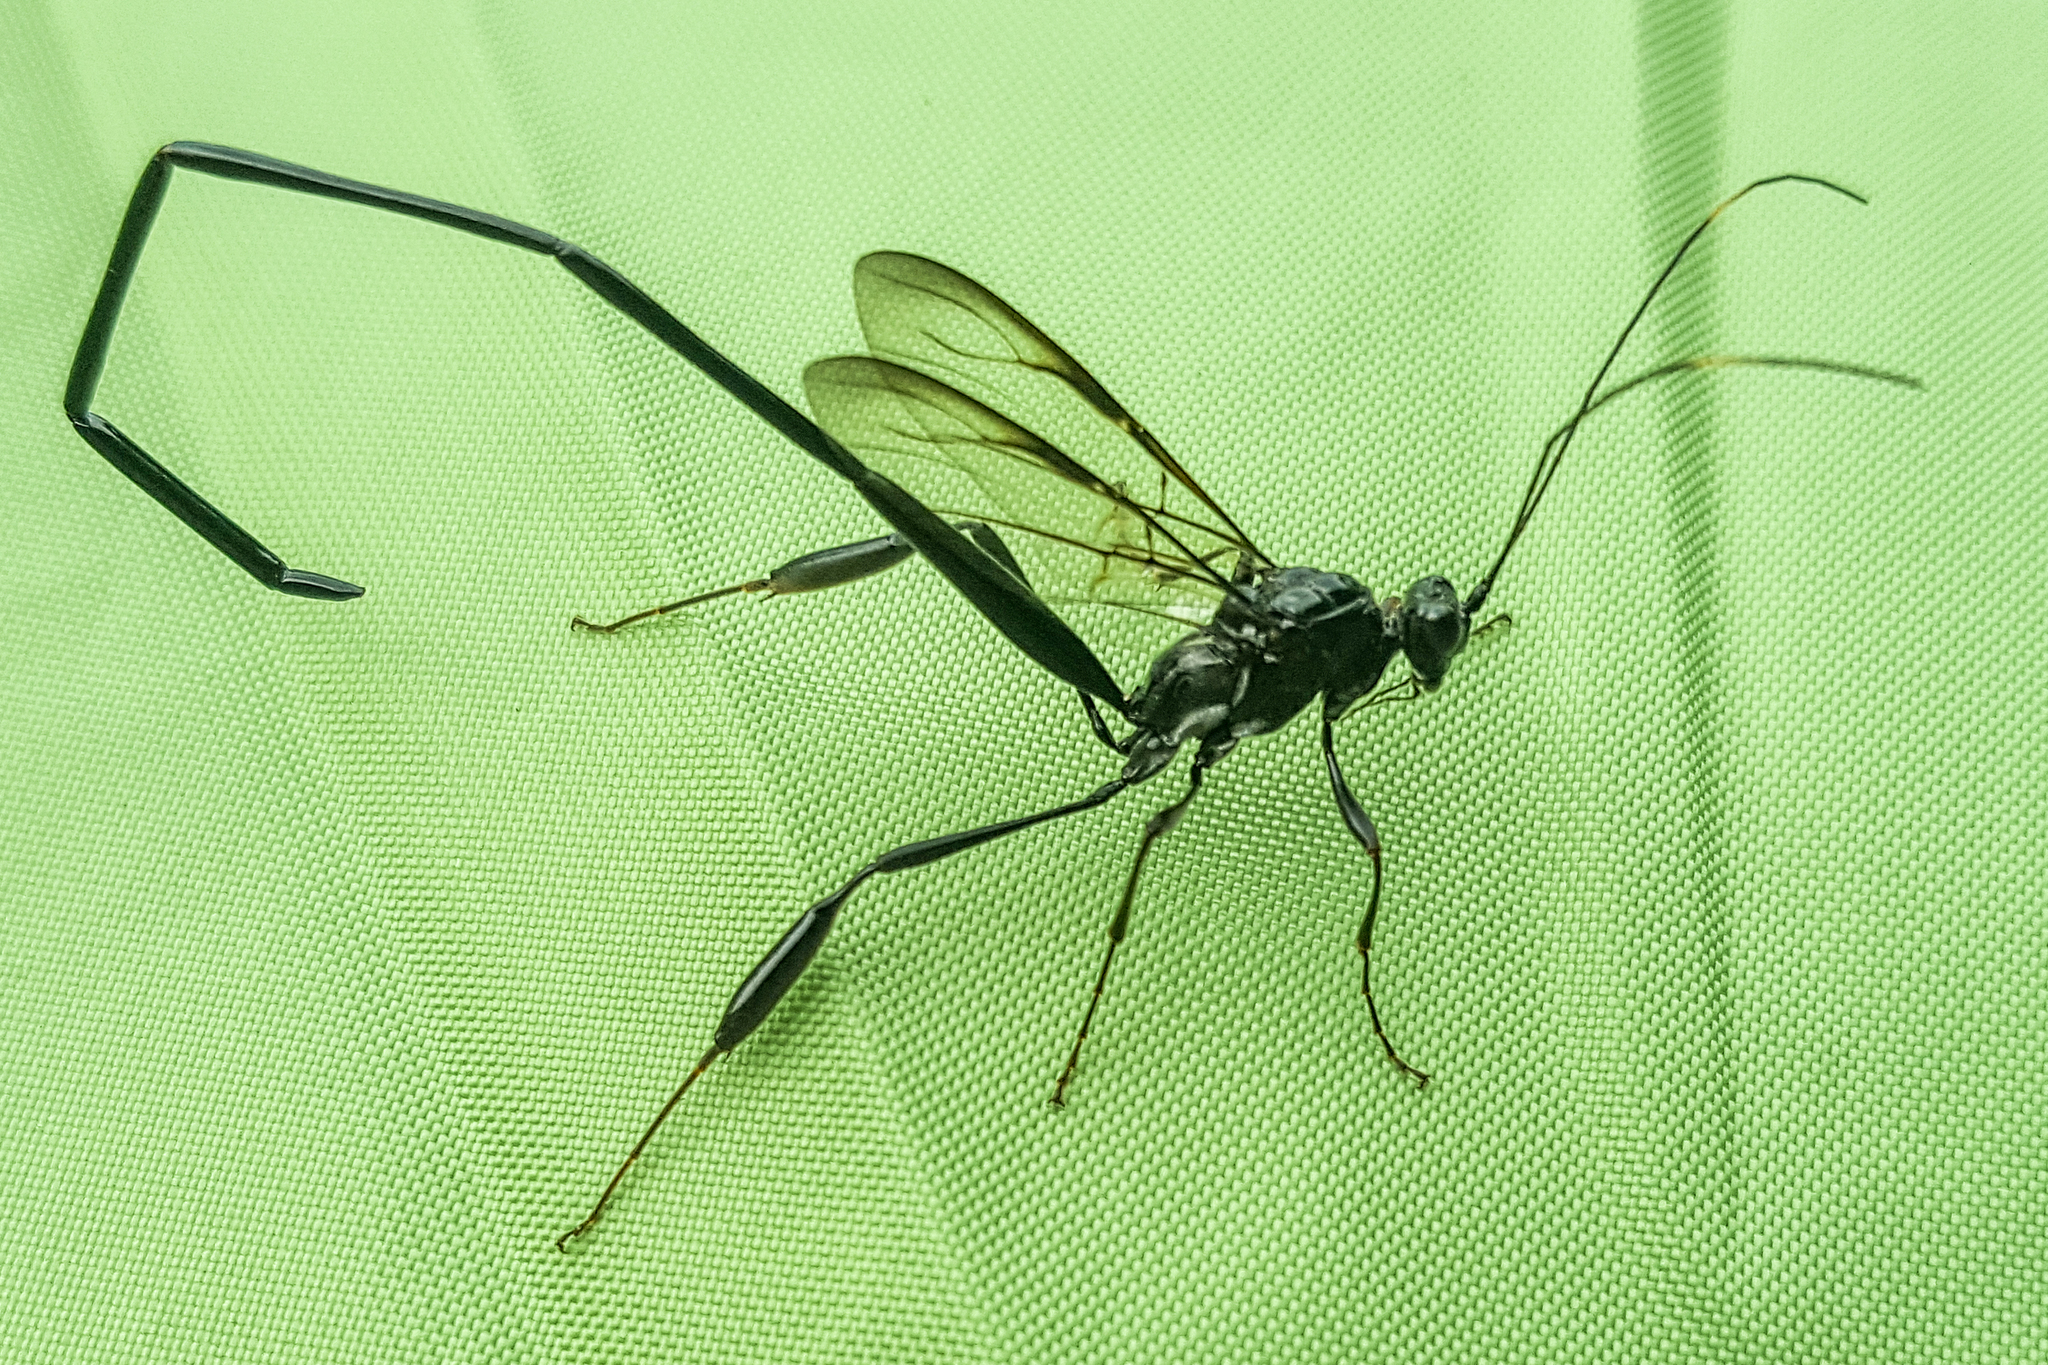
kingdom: Animalia
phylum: Arthropoda
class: Insecta
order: Hymenoptera
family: Pelecinidae
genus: Pelecinus
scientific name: Pelecinus polyturator
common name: American pelecinid wasp
